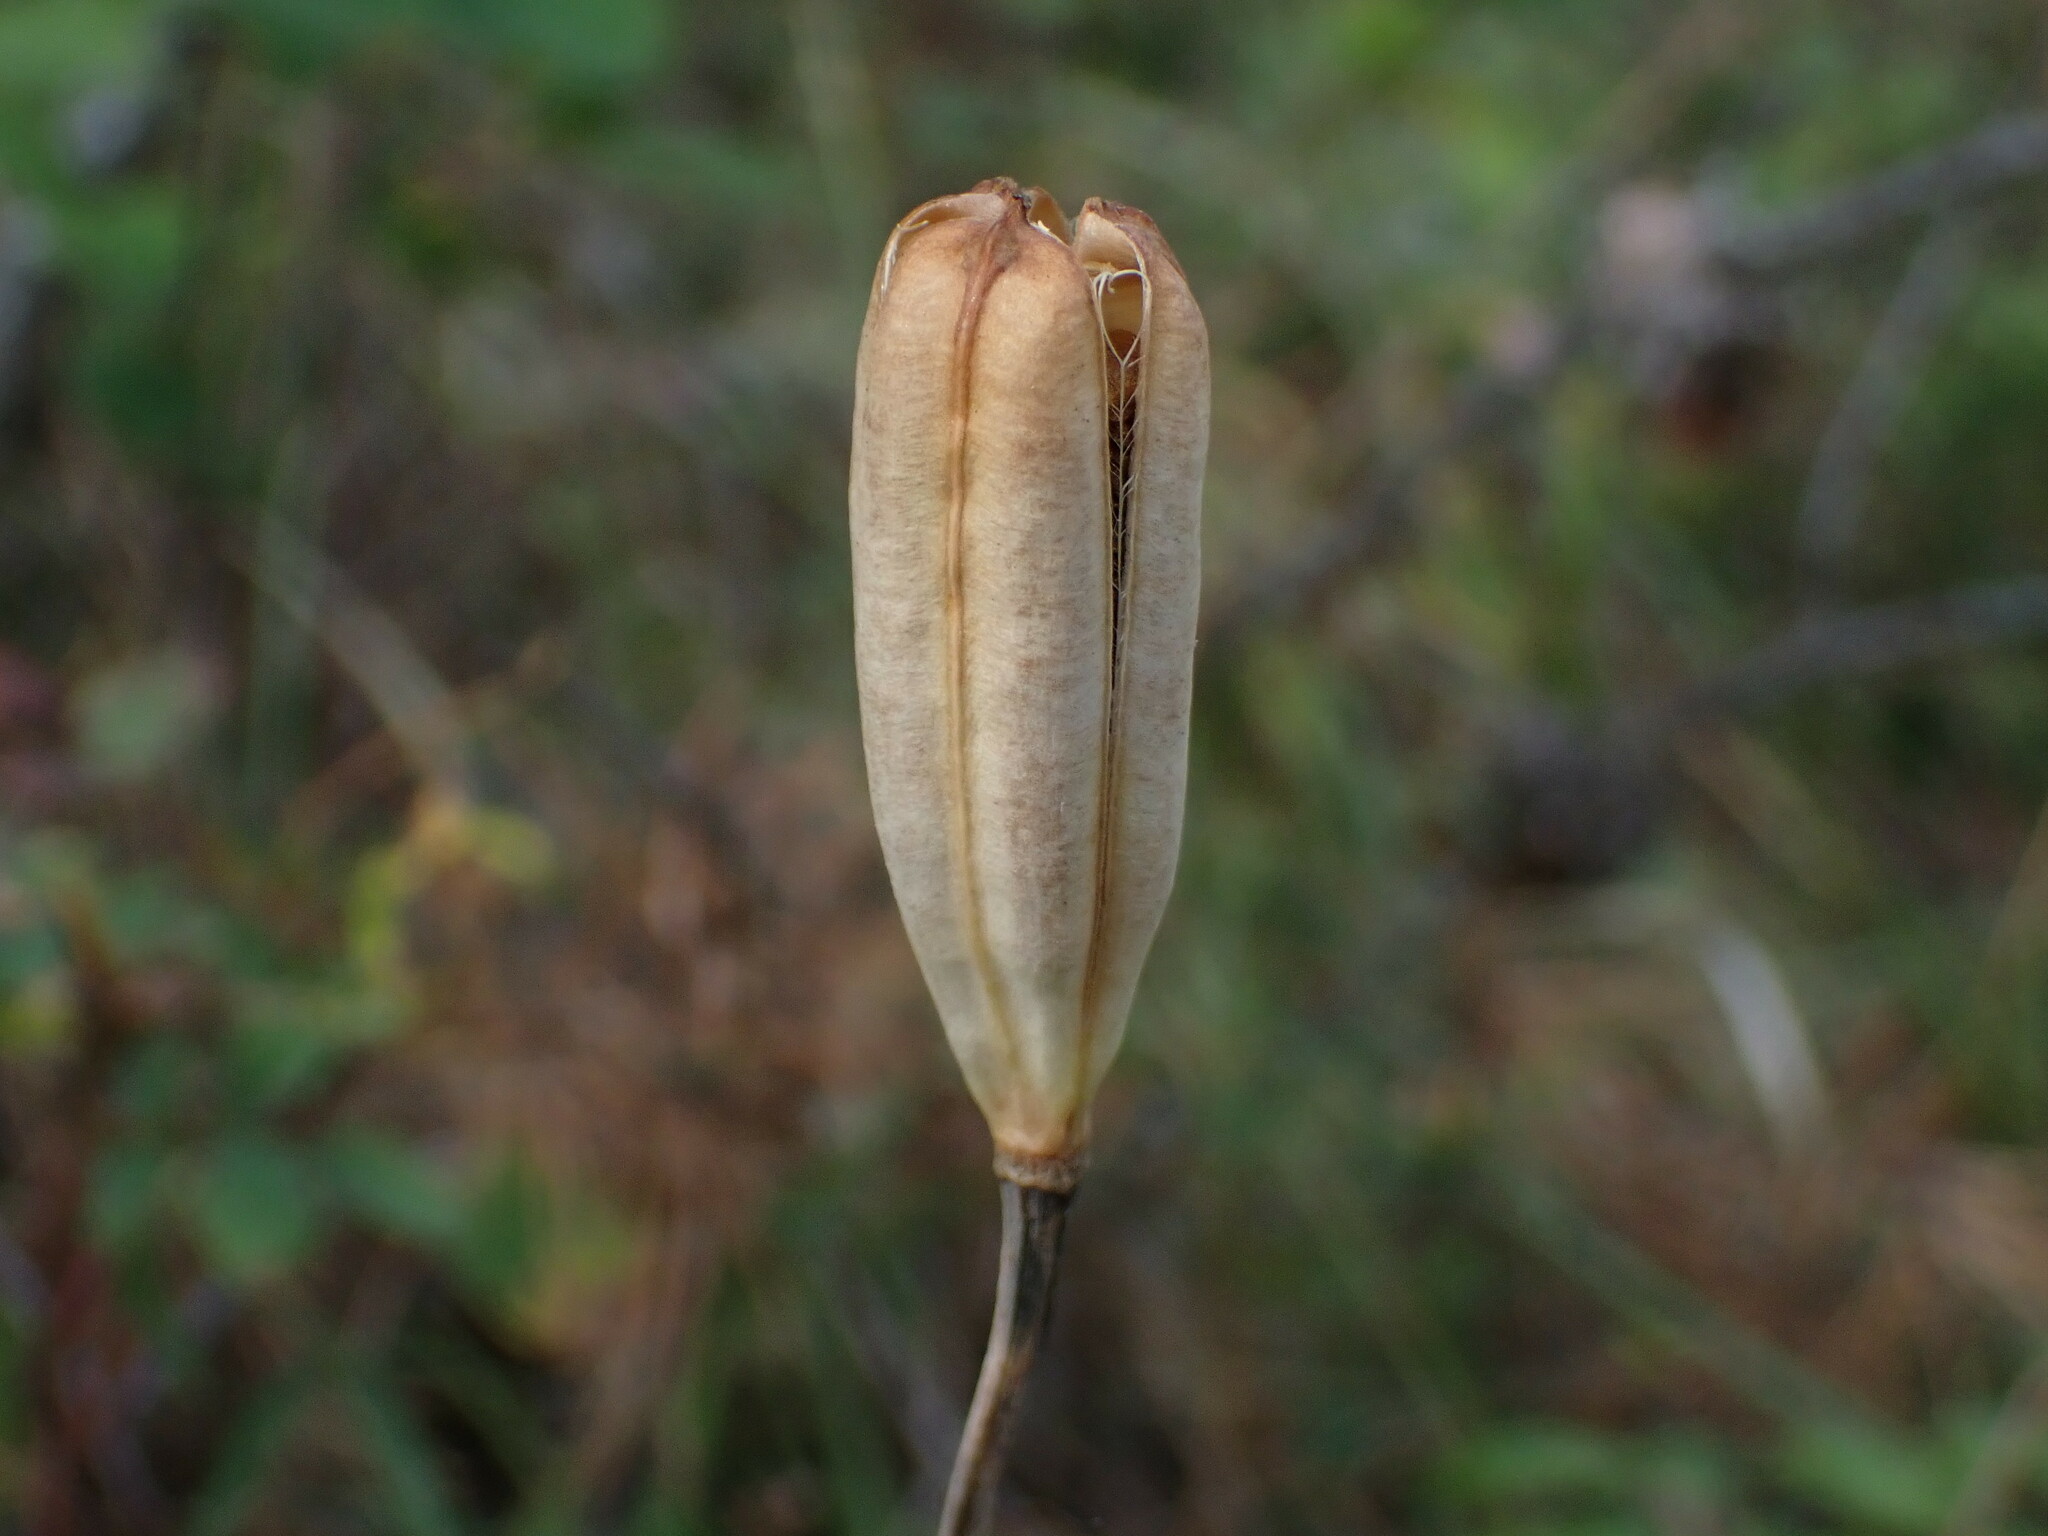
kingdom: Plantae
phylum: Tracheophyta
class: Liliopsida
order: Liliales
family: Liliaceae
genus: Lilium
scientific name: Lilium philadelphicum
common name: Red lily
